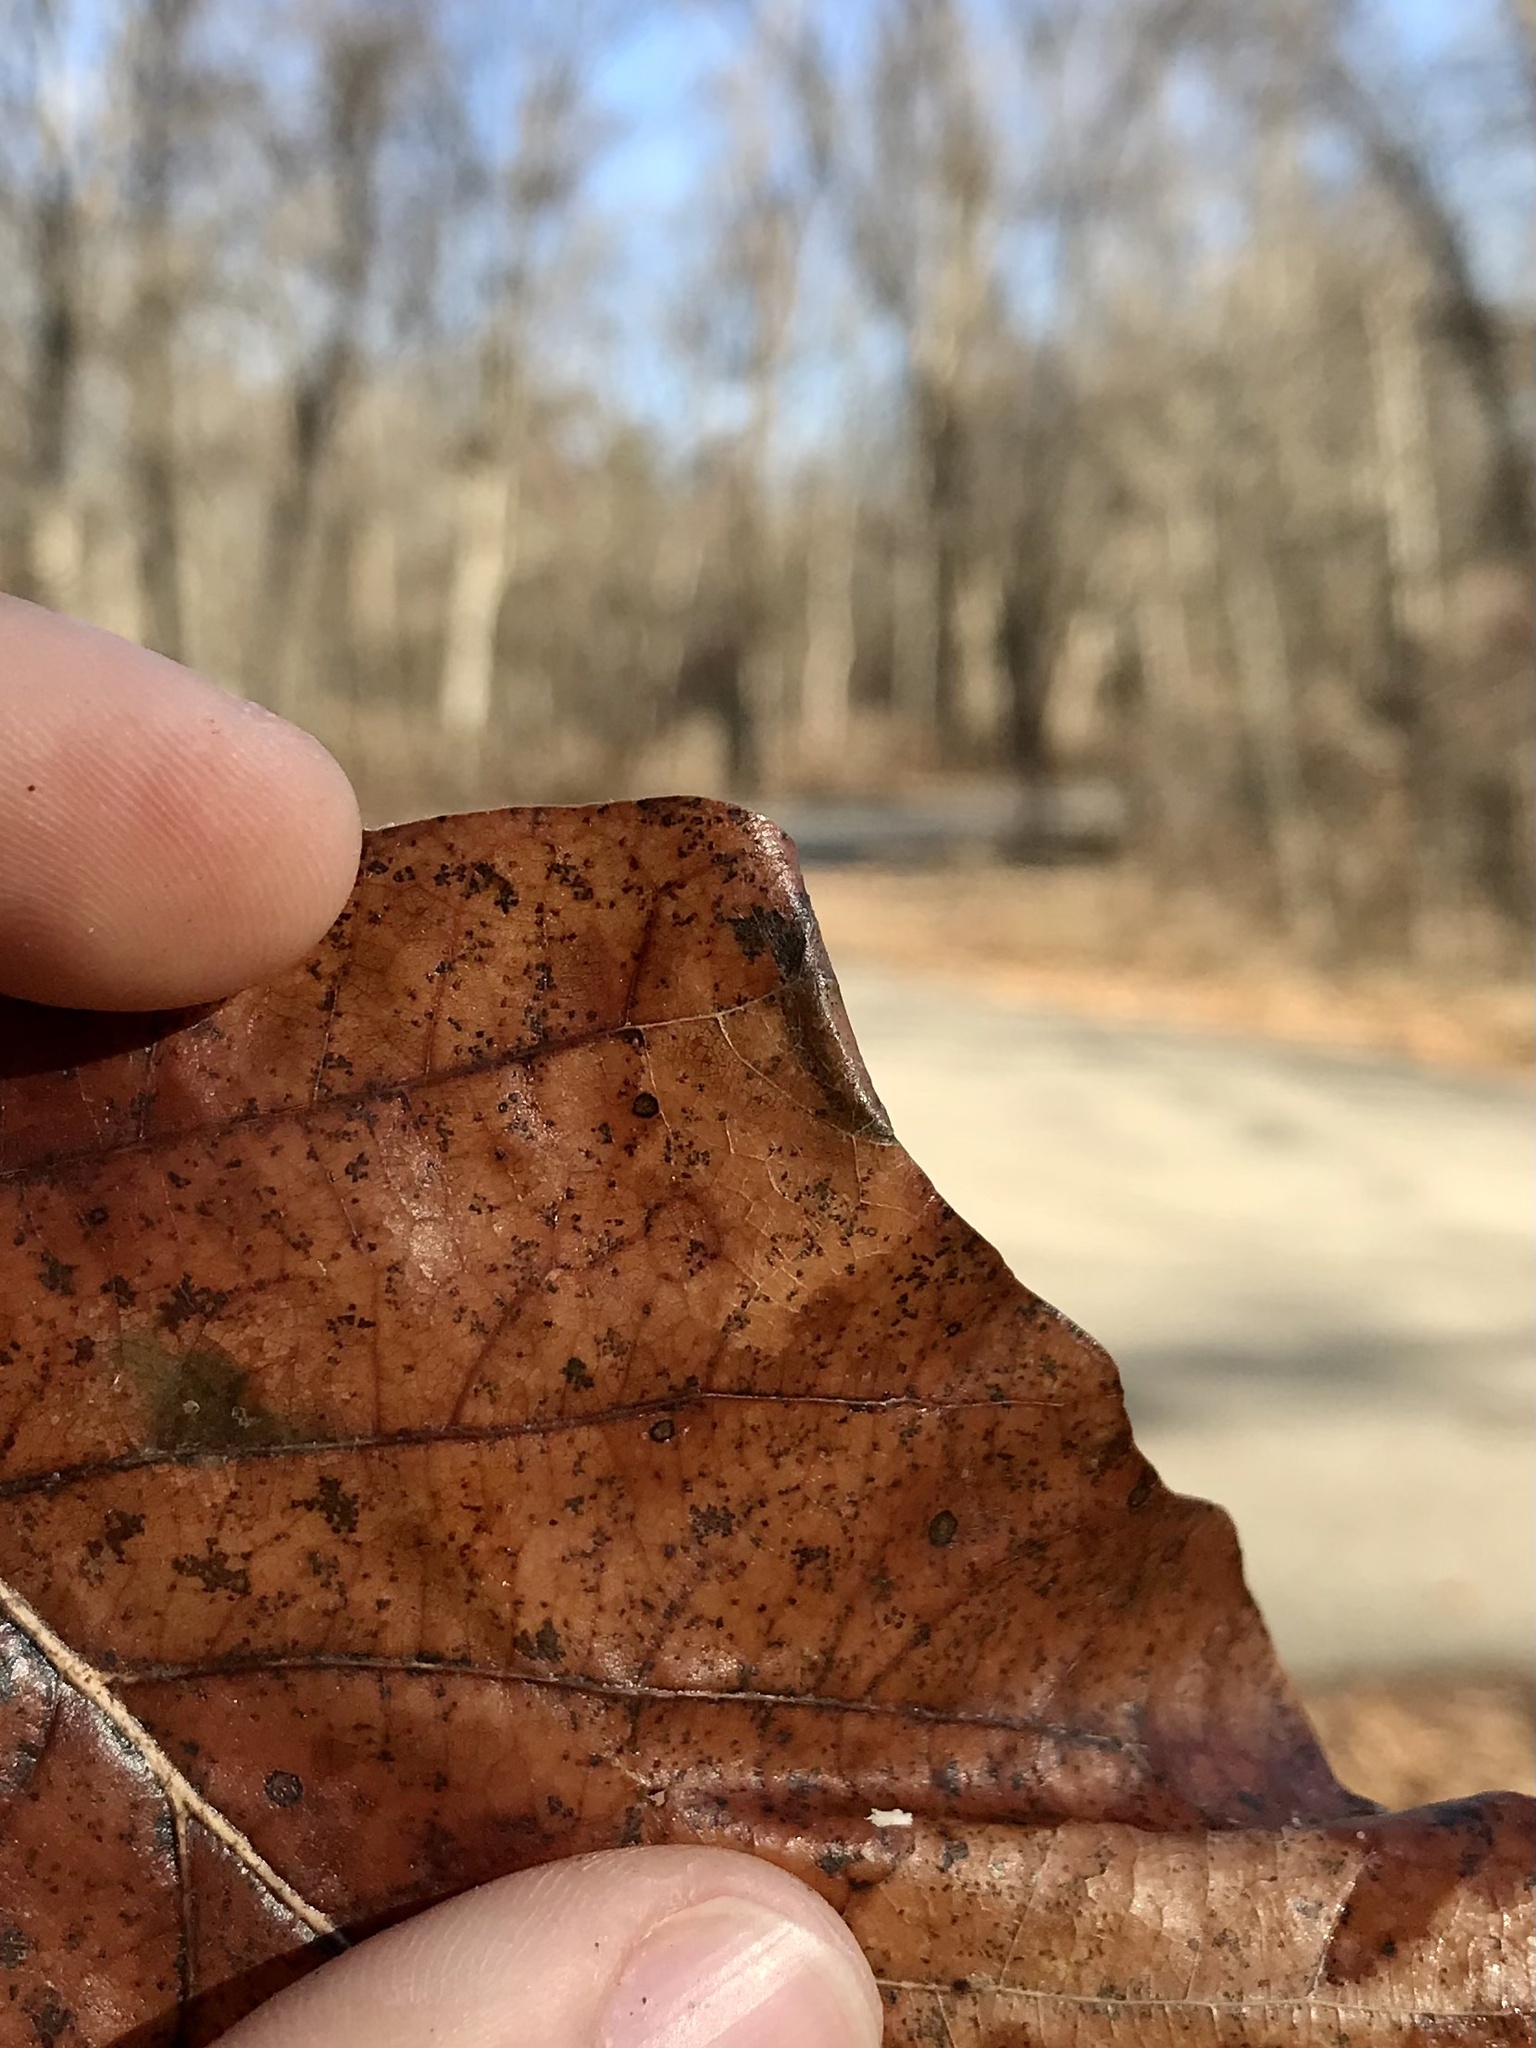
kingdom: Animalia
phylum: Arthropoda
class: Insecta
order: Lepidoptera
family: Gracillariidae
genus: Phyllonorycter
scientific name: Phyllonorycter
